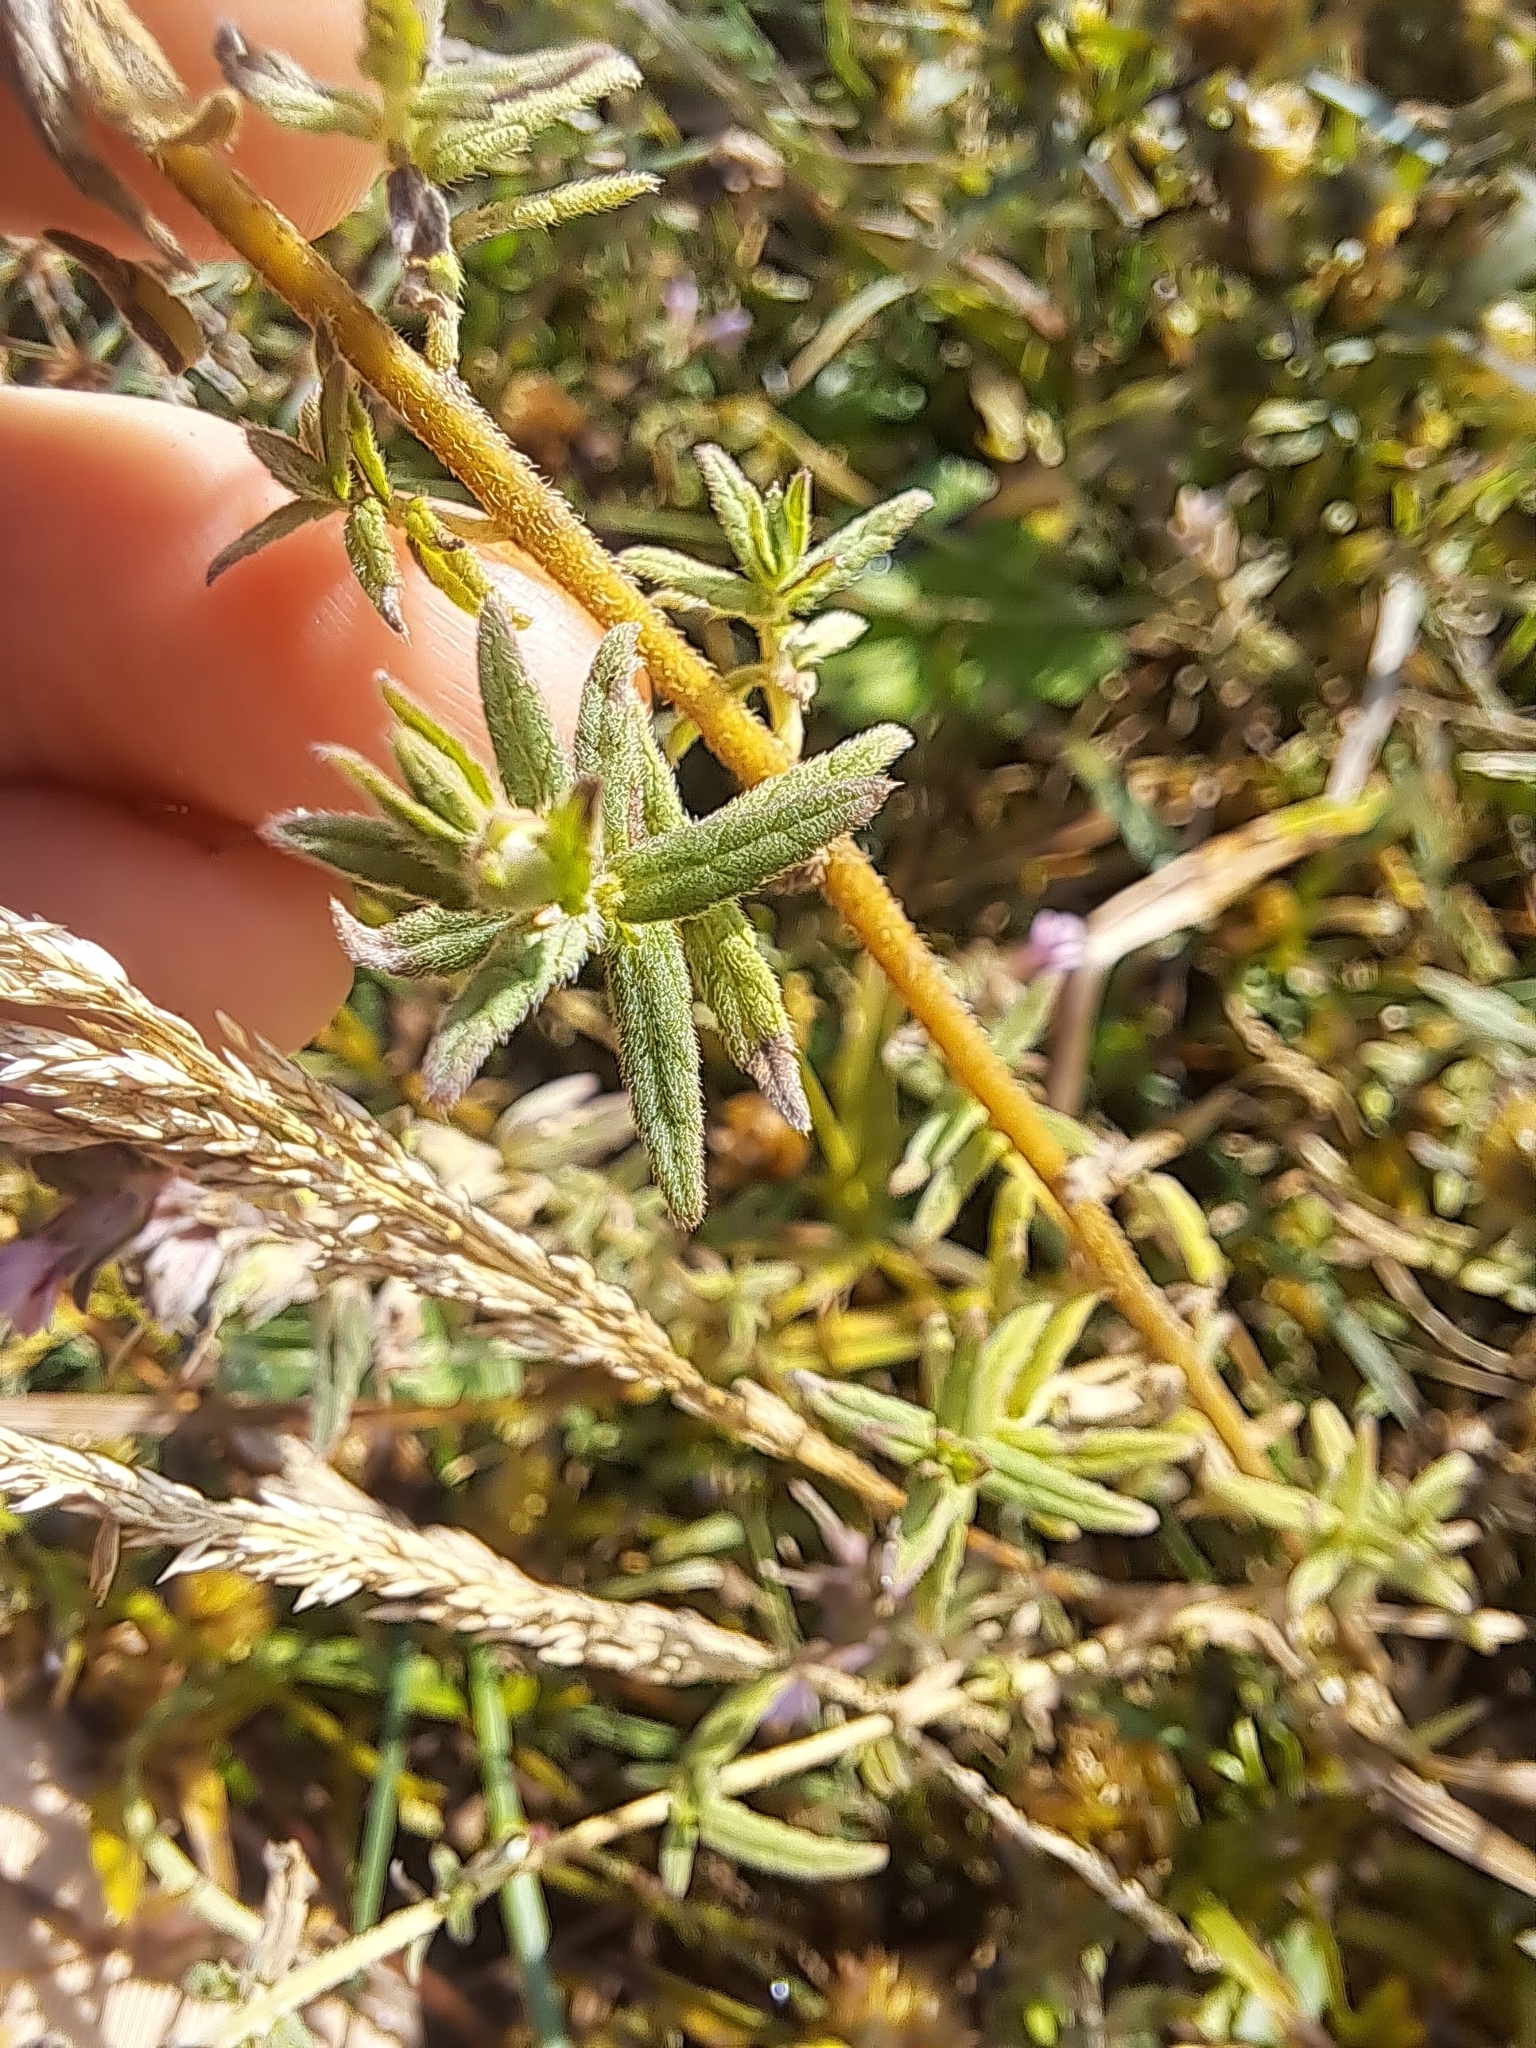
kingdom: Plantae
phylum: Tracheophyta
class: Magnoliopsida
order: Lamiales
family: Orobanchaceae
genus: Odontites
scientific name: Odontites vulgaris
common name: Broomrape
